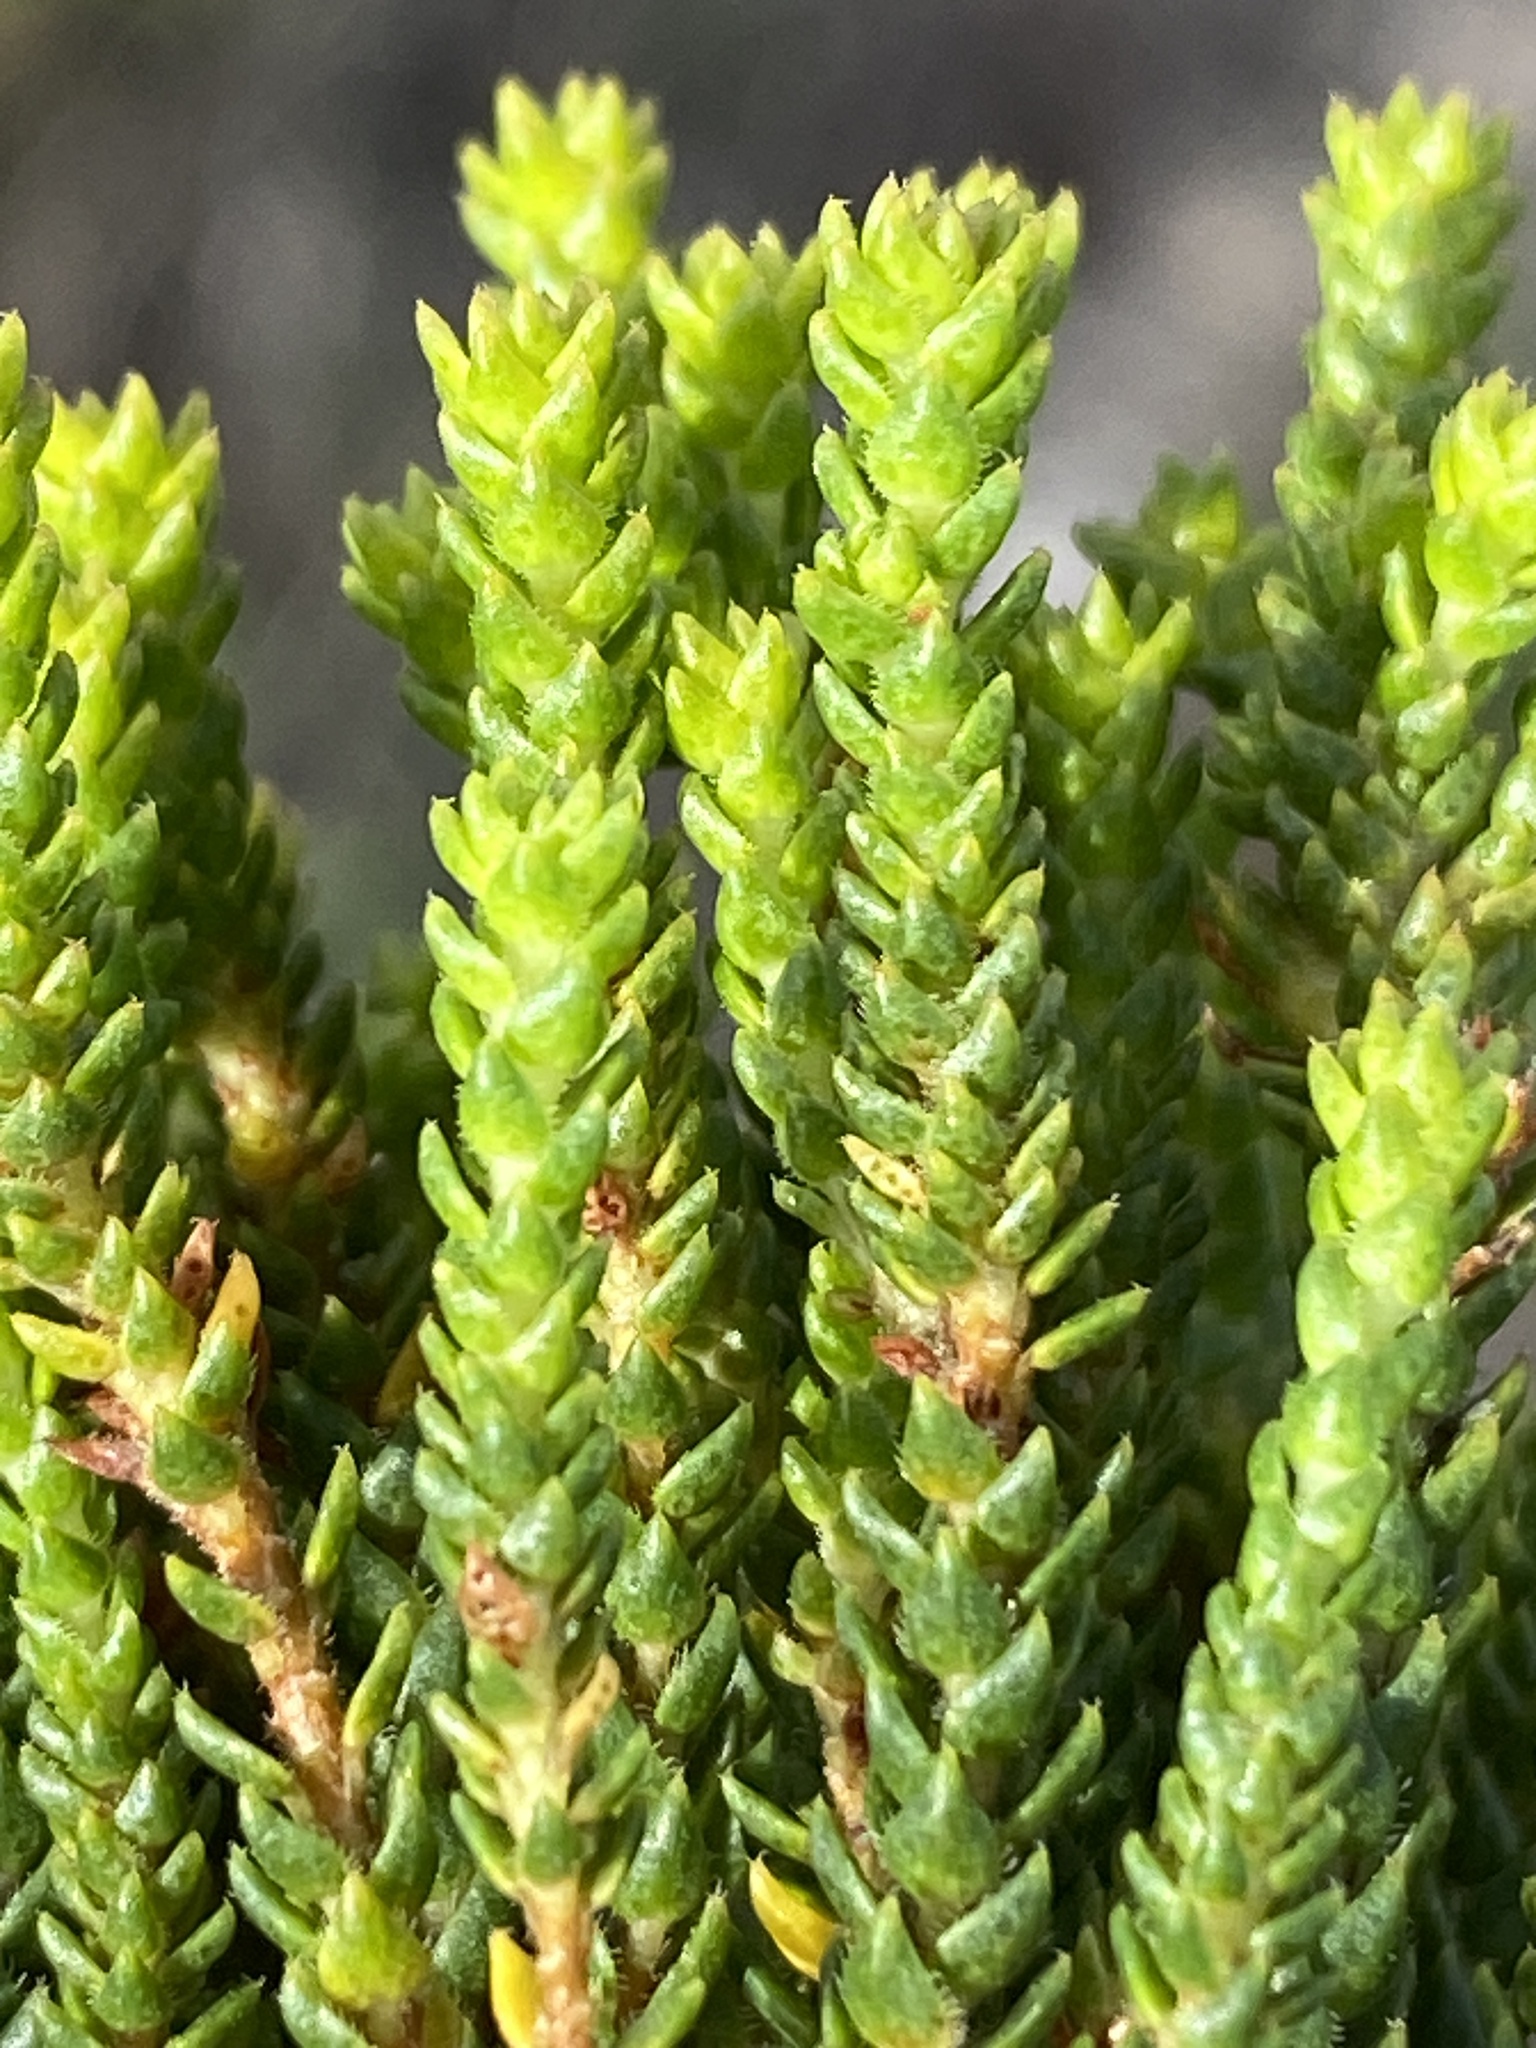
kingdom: Plantae
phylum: Tracheophyta
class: Magnoliopsida
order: Sapindales
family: Rutaceae
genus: Agathosma
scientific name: Agathosma imbricata
